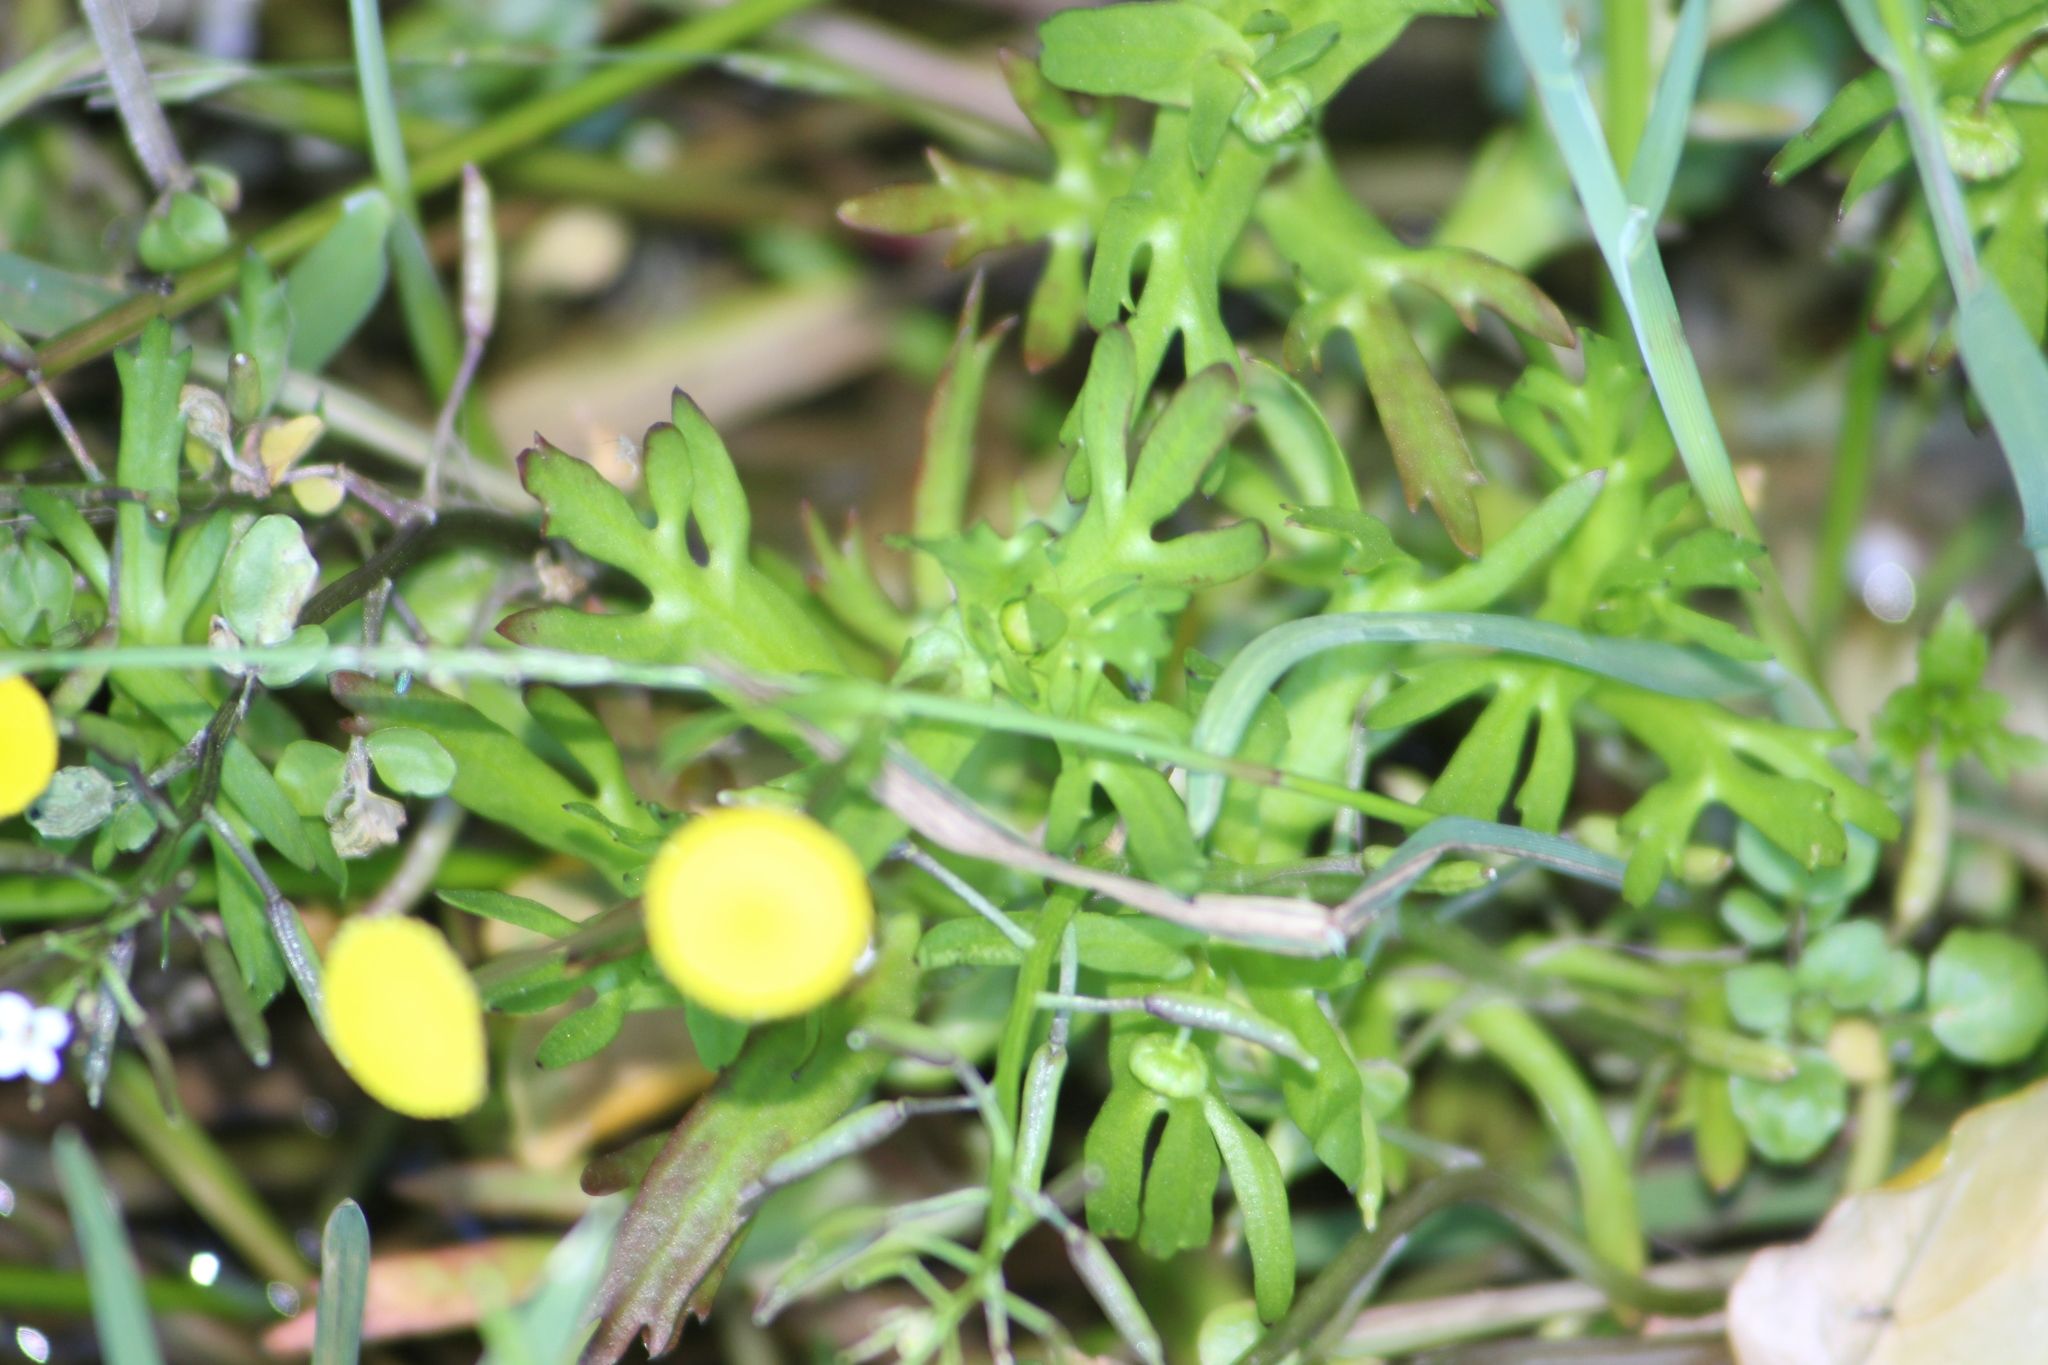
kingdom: Plantae
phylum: Tracheophyta
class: Magnoliopsida
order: Asterales
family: Asteraceae
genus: Cotula
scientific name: Cotula coronopifolia
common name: Buttonweed
